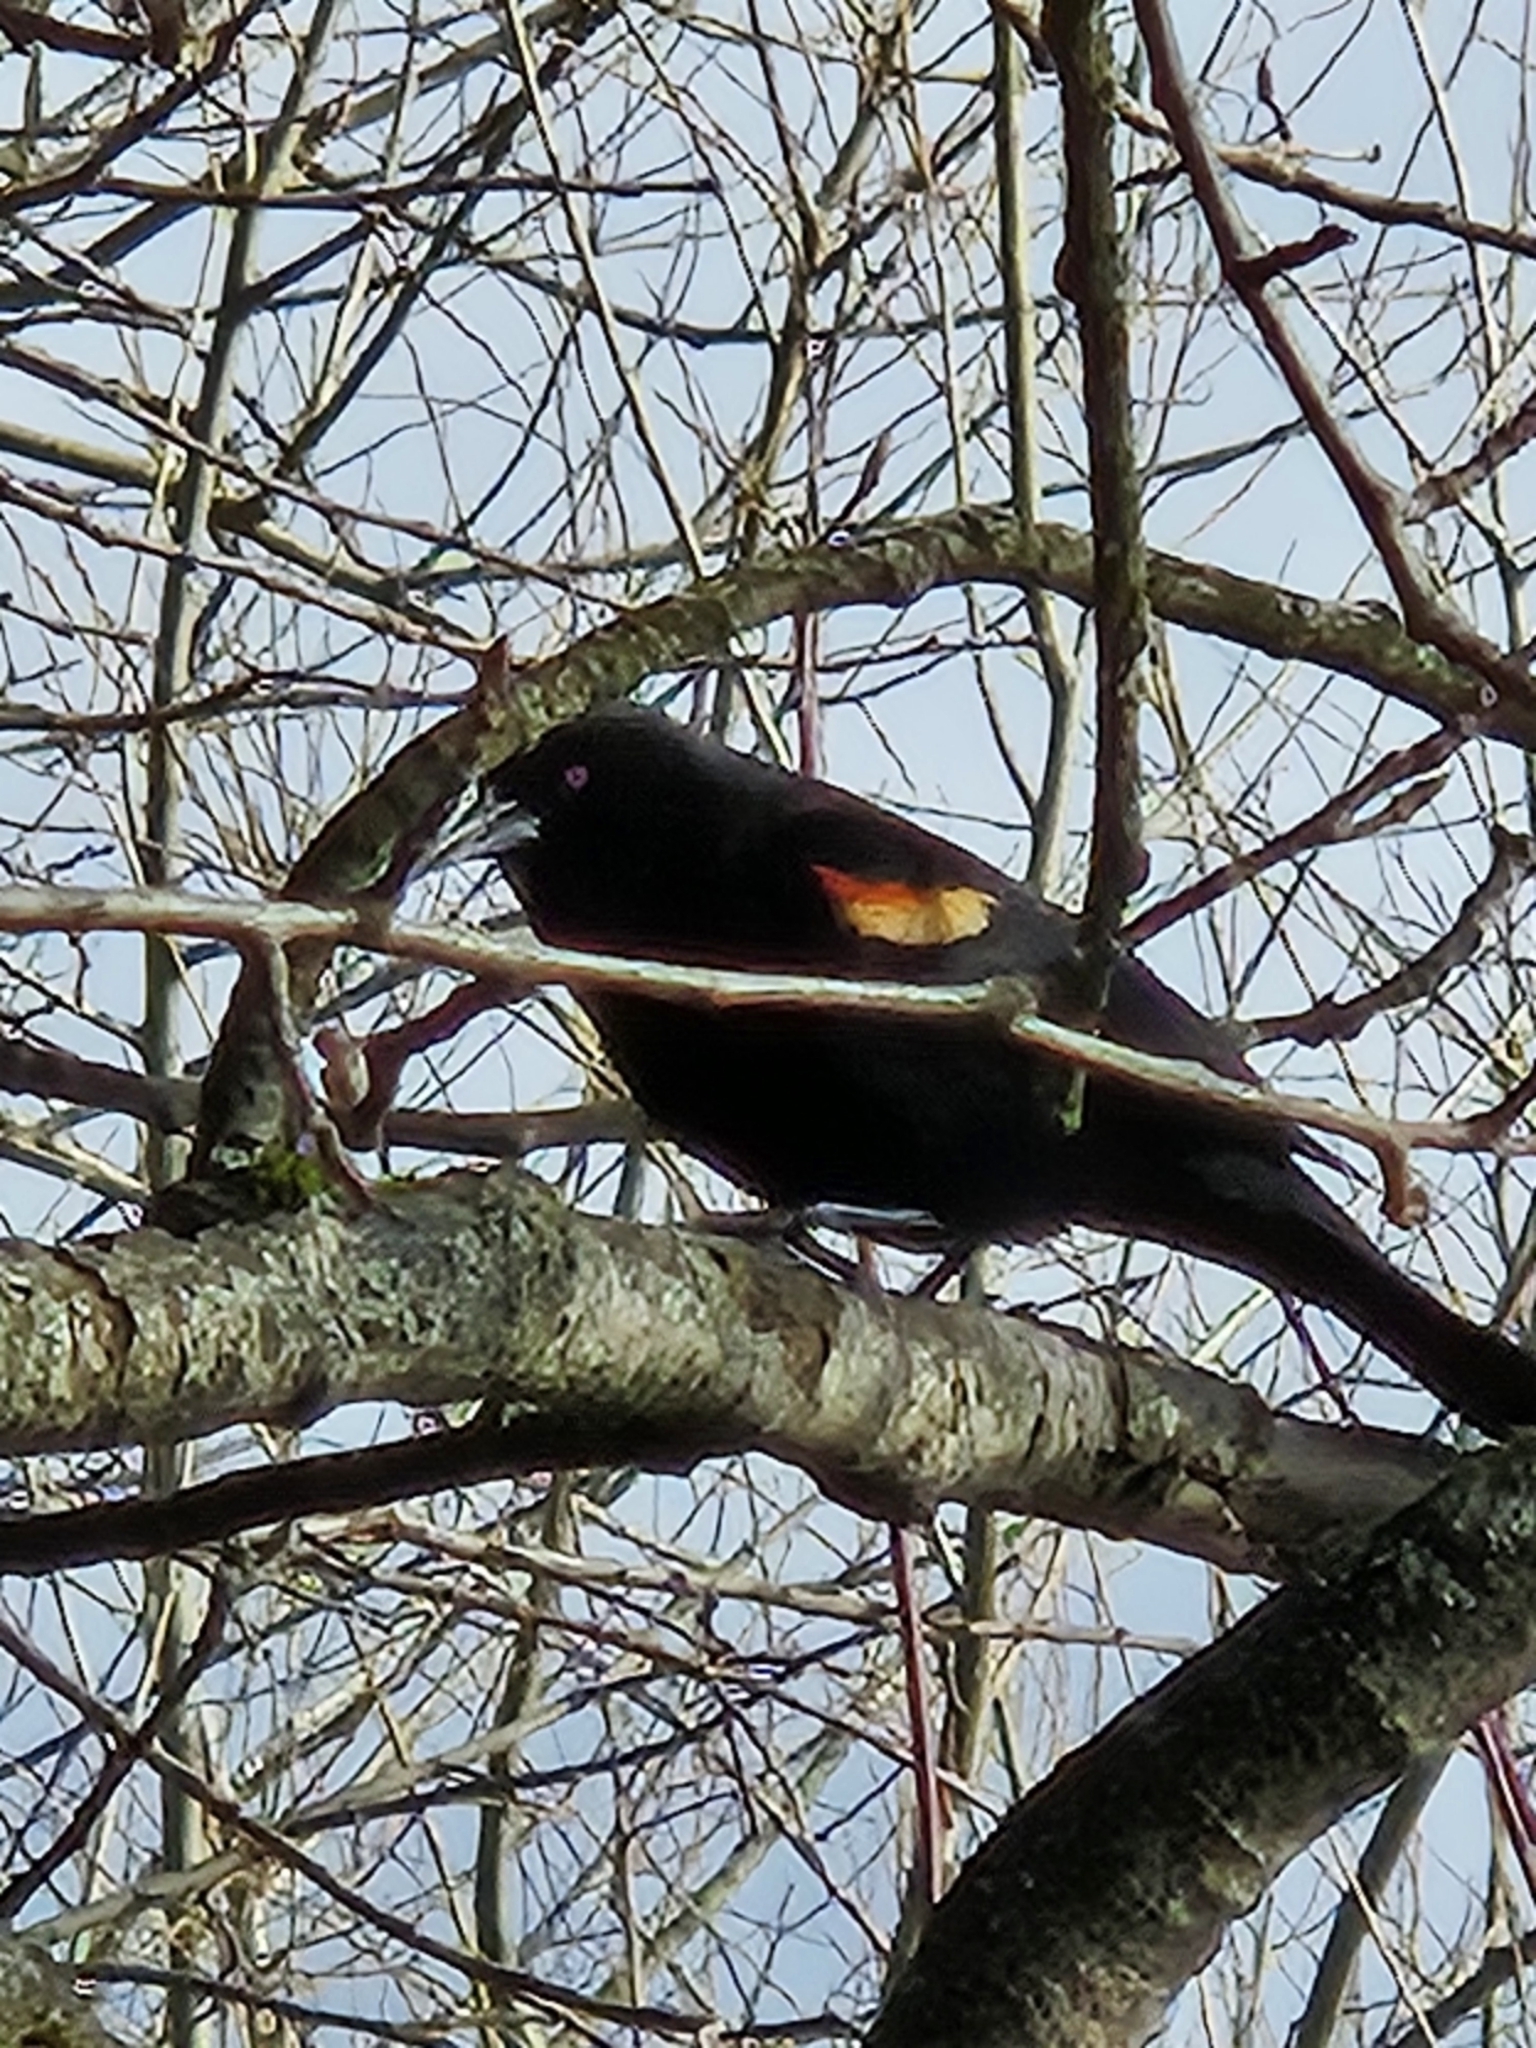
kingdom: Animalia
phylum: Chordata
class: Aves
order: Passeriformes
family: Icteridae
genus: Agelaius
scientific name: Agelaius phoeniceus
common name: Red-winged blackbird
